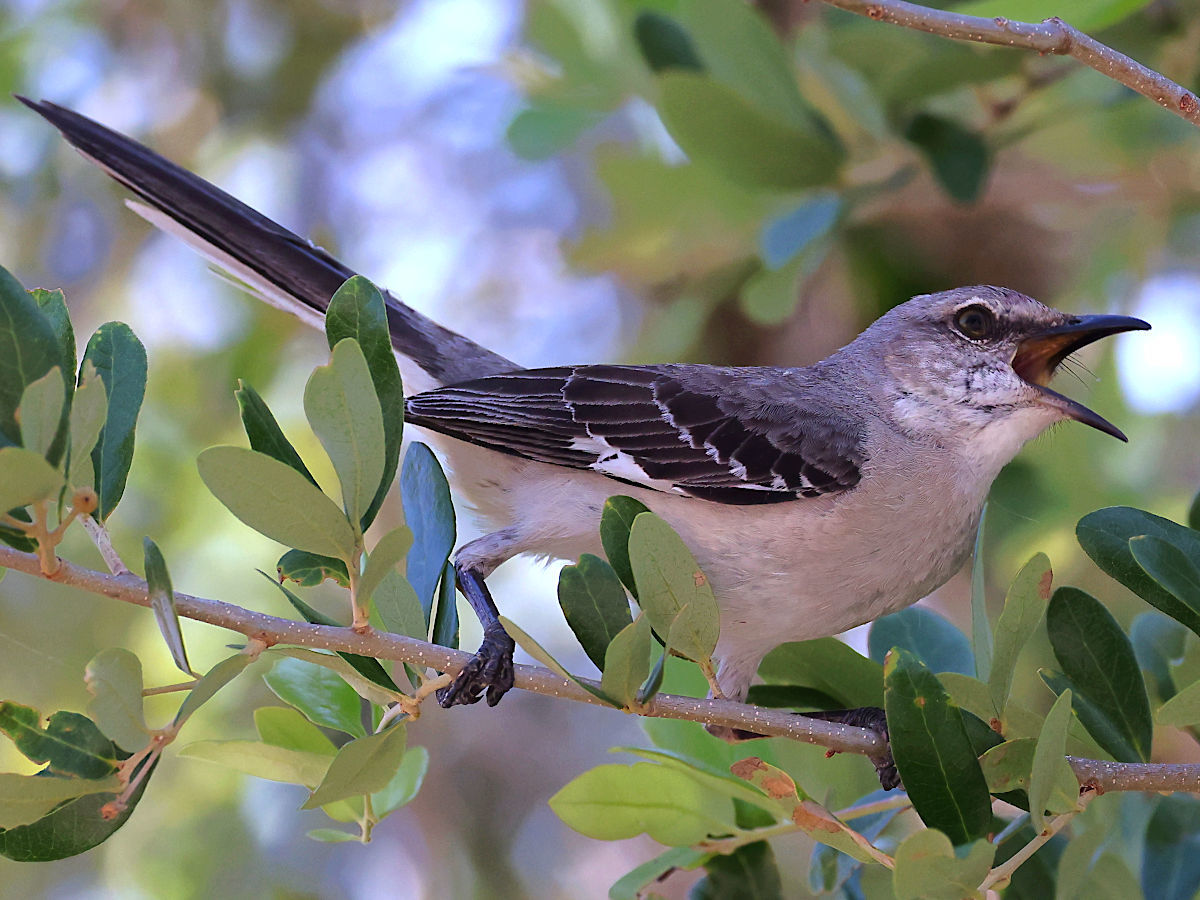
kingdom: Animalia
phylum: Chordata
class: Aves
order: Passeriformes
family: Mimidae
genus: Mimus
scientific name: Mimus polyglottos
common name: Northern mockingbird
